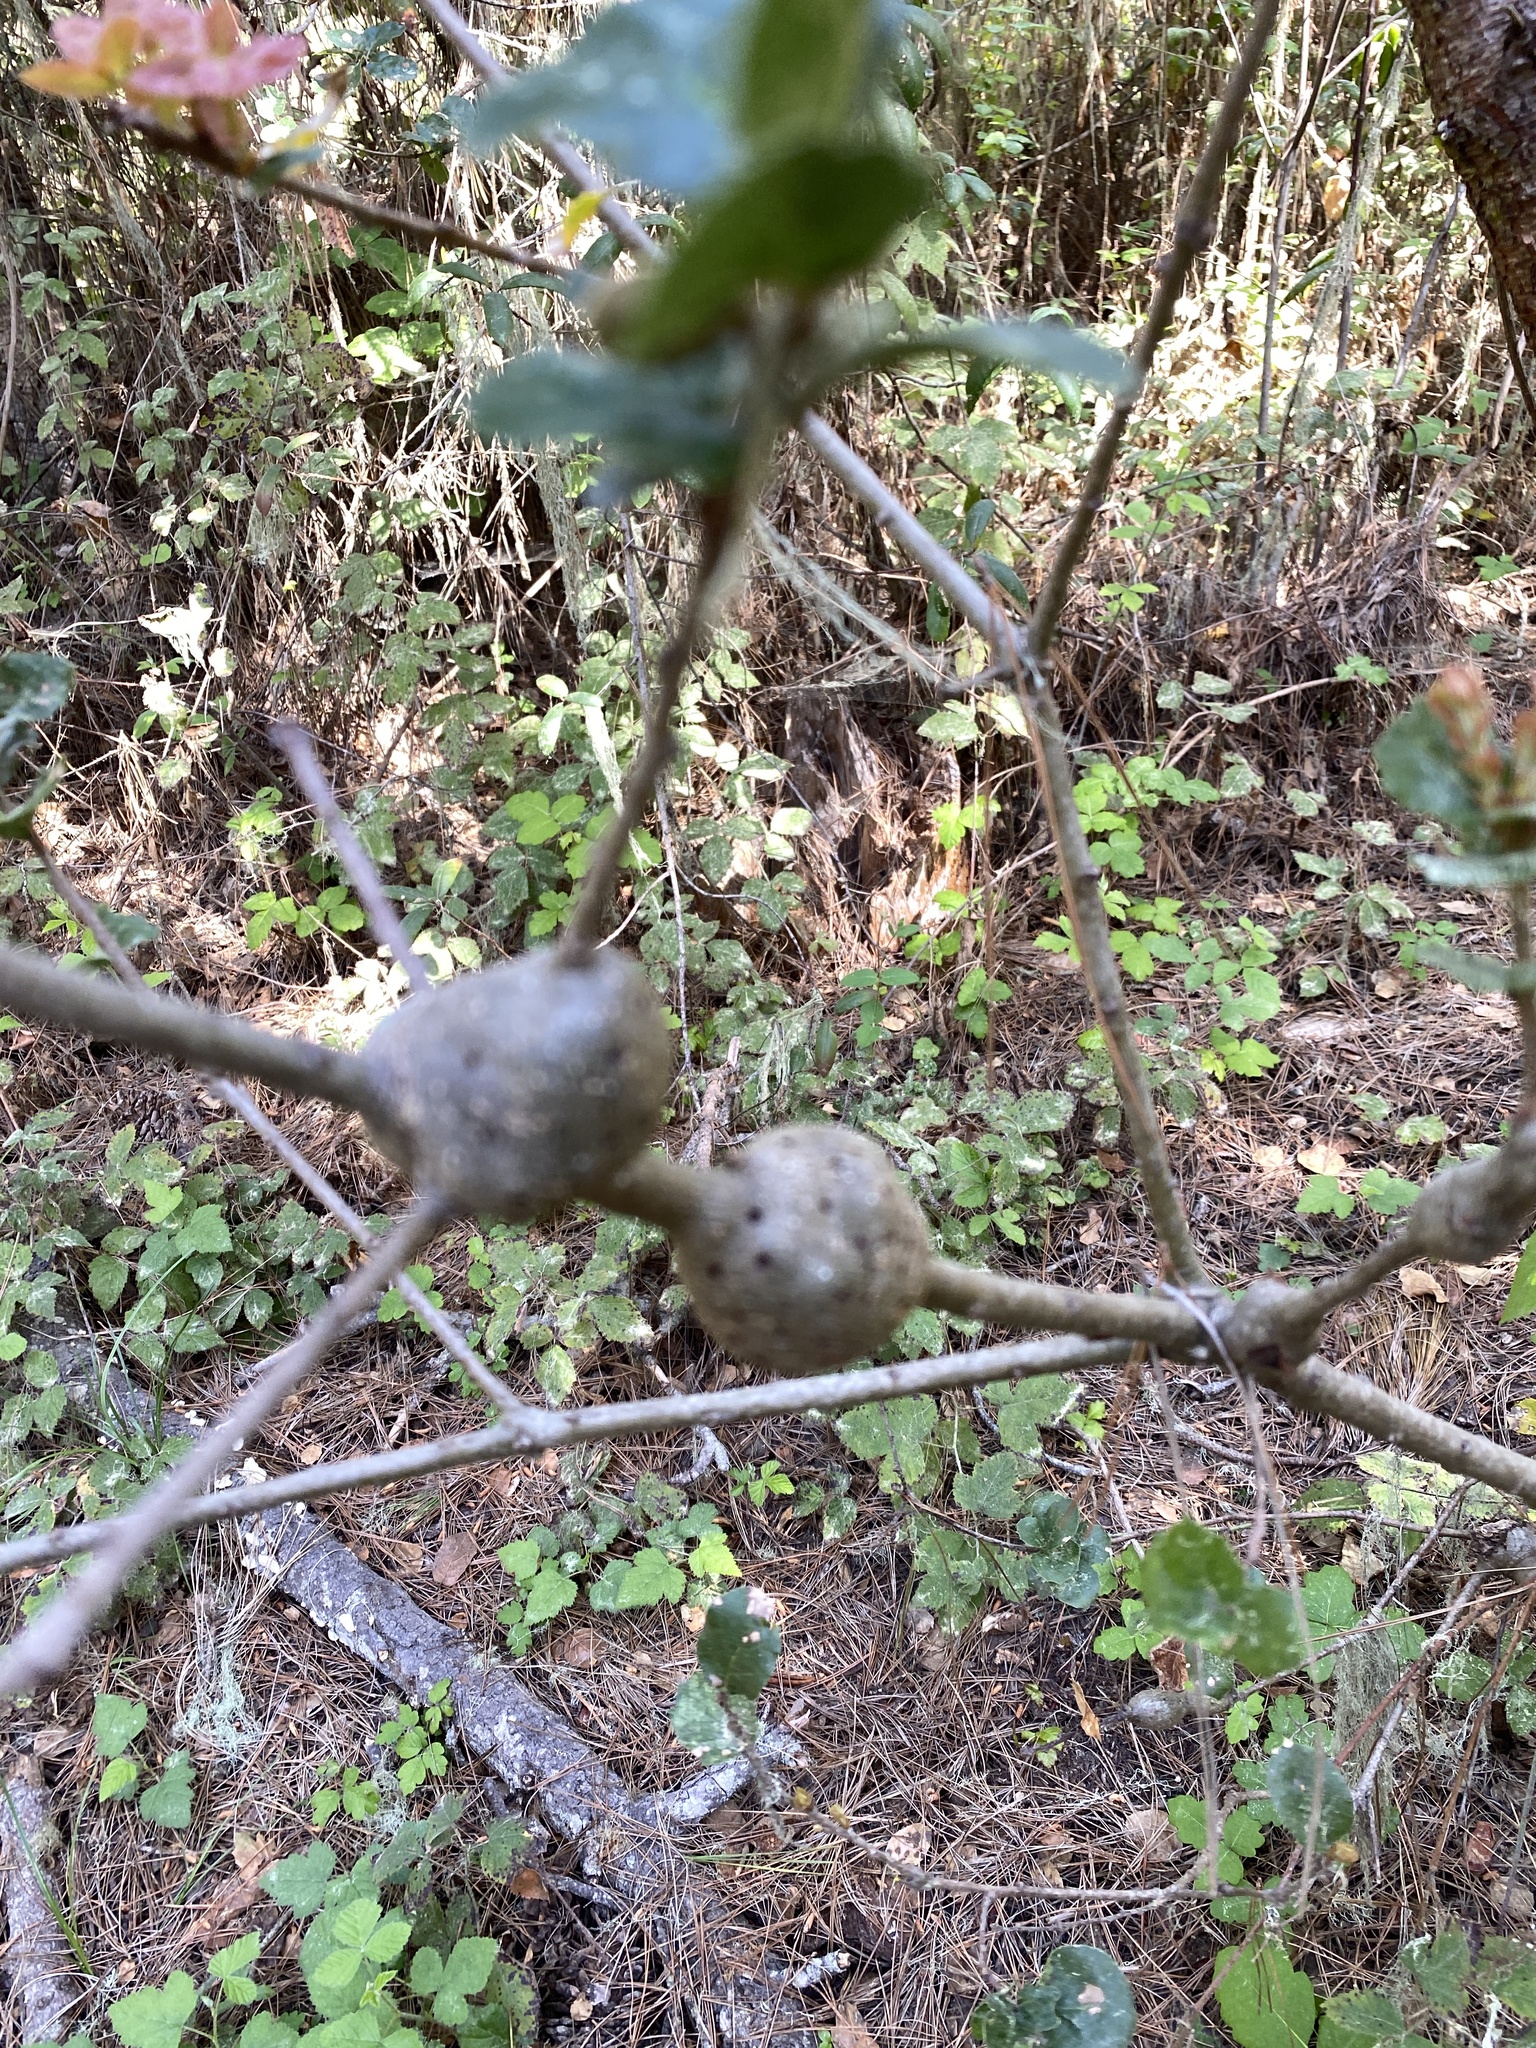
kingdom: Animalia
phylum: Arthropoda
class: Insecta
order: Hymenoptera
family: Cynipidae
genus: Callirhytis
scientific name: Callirhytis
